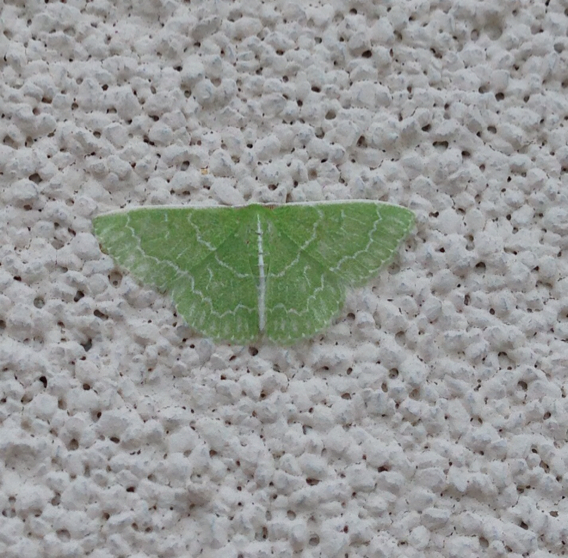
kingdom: Animalia
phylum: Arthropoda
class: Insecta
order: Lepidoptera
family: Geometridae
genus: Synchlora
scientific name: Synchlora aerata
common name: Wavy-lined emerald
